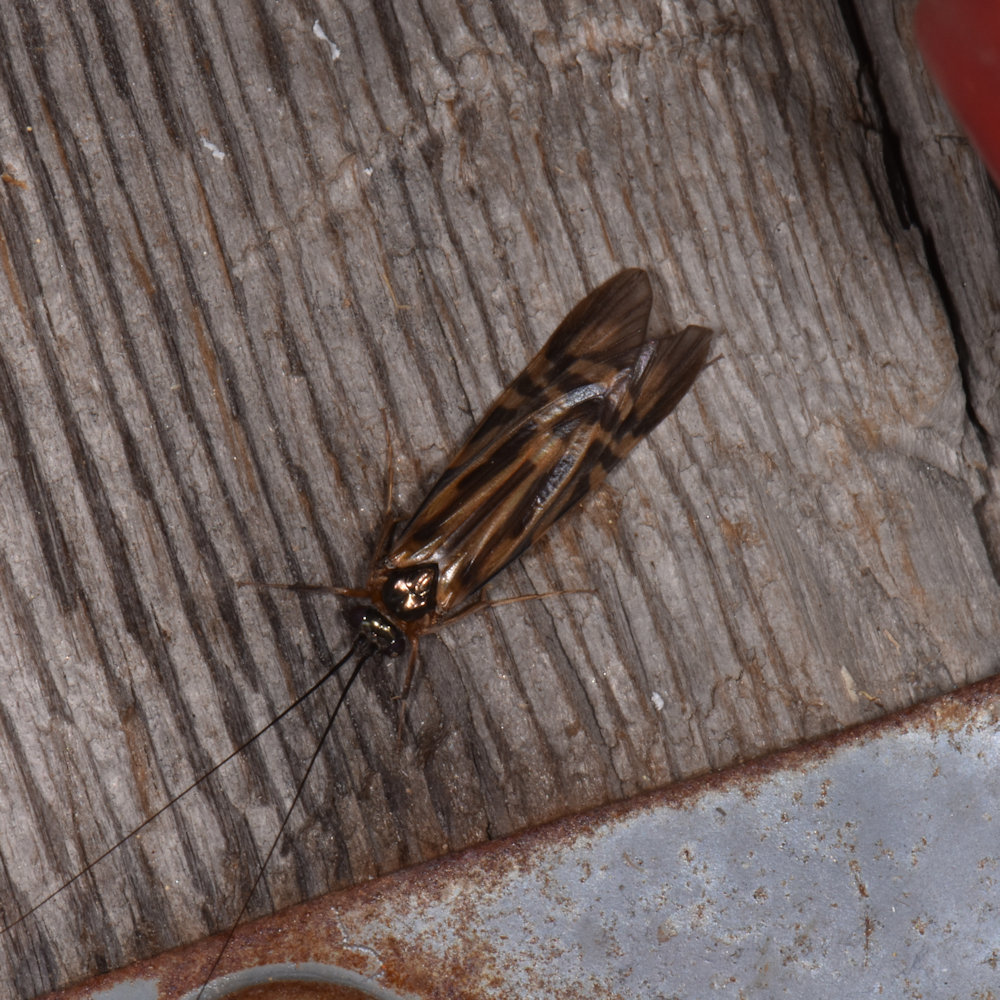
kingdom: Animalia
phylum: Arthropoda
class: Insecta
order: Trichoptera
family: Hydropsychidae
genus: Macrostemum
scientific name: Macrostemum zebratum
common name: Zebra caddisfly
